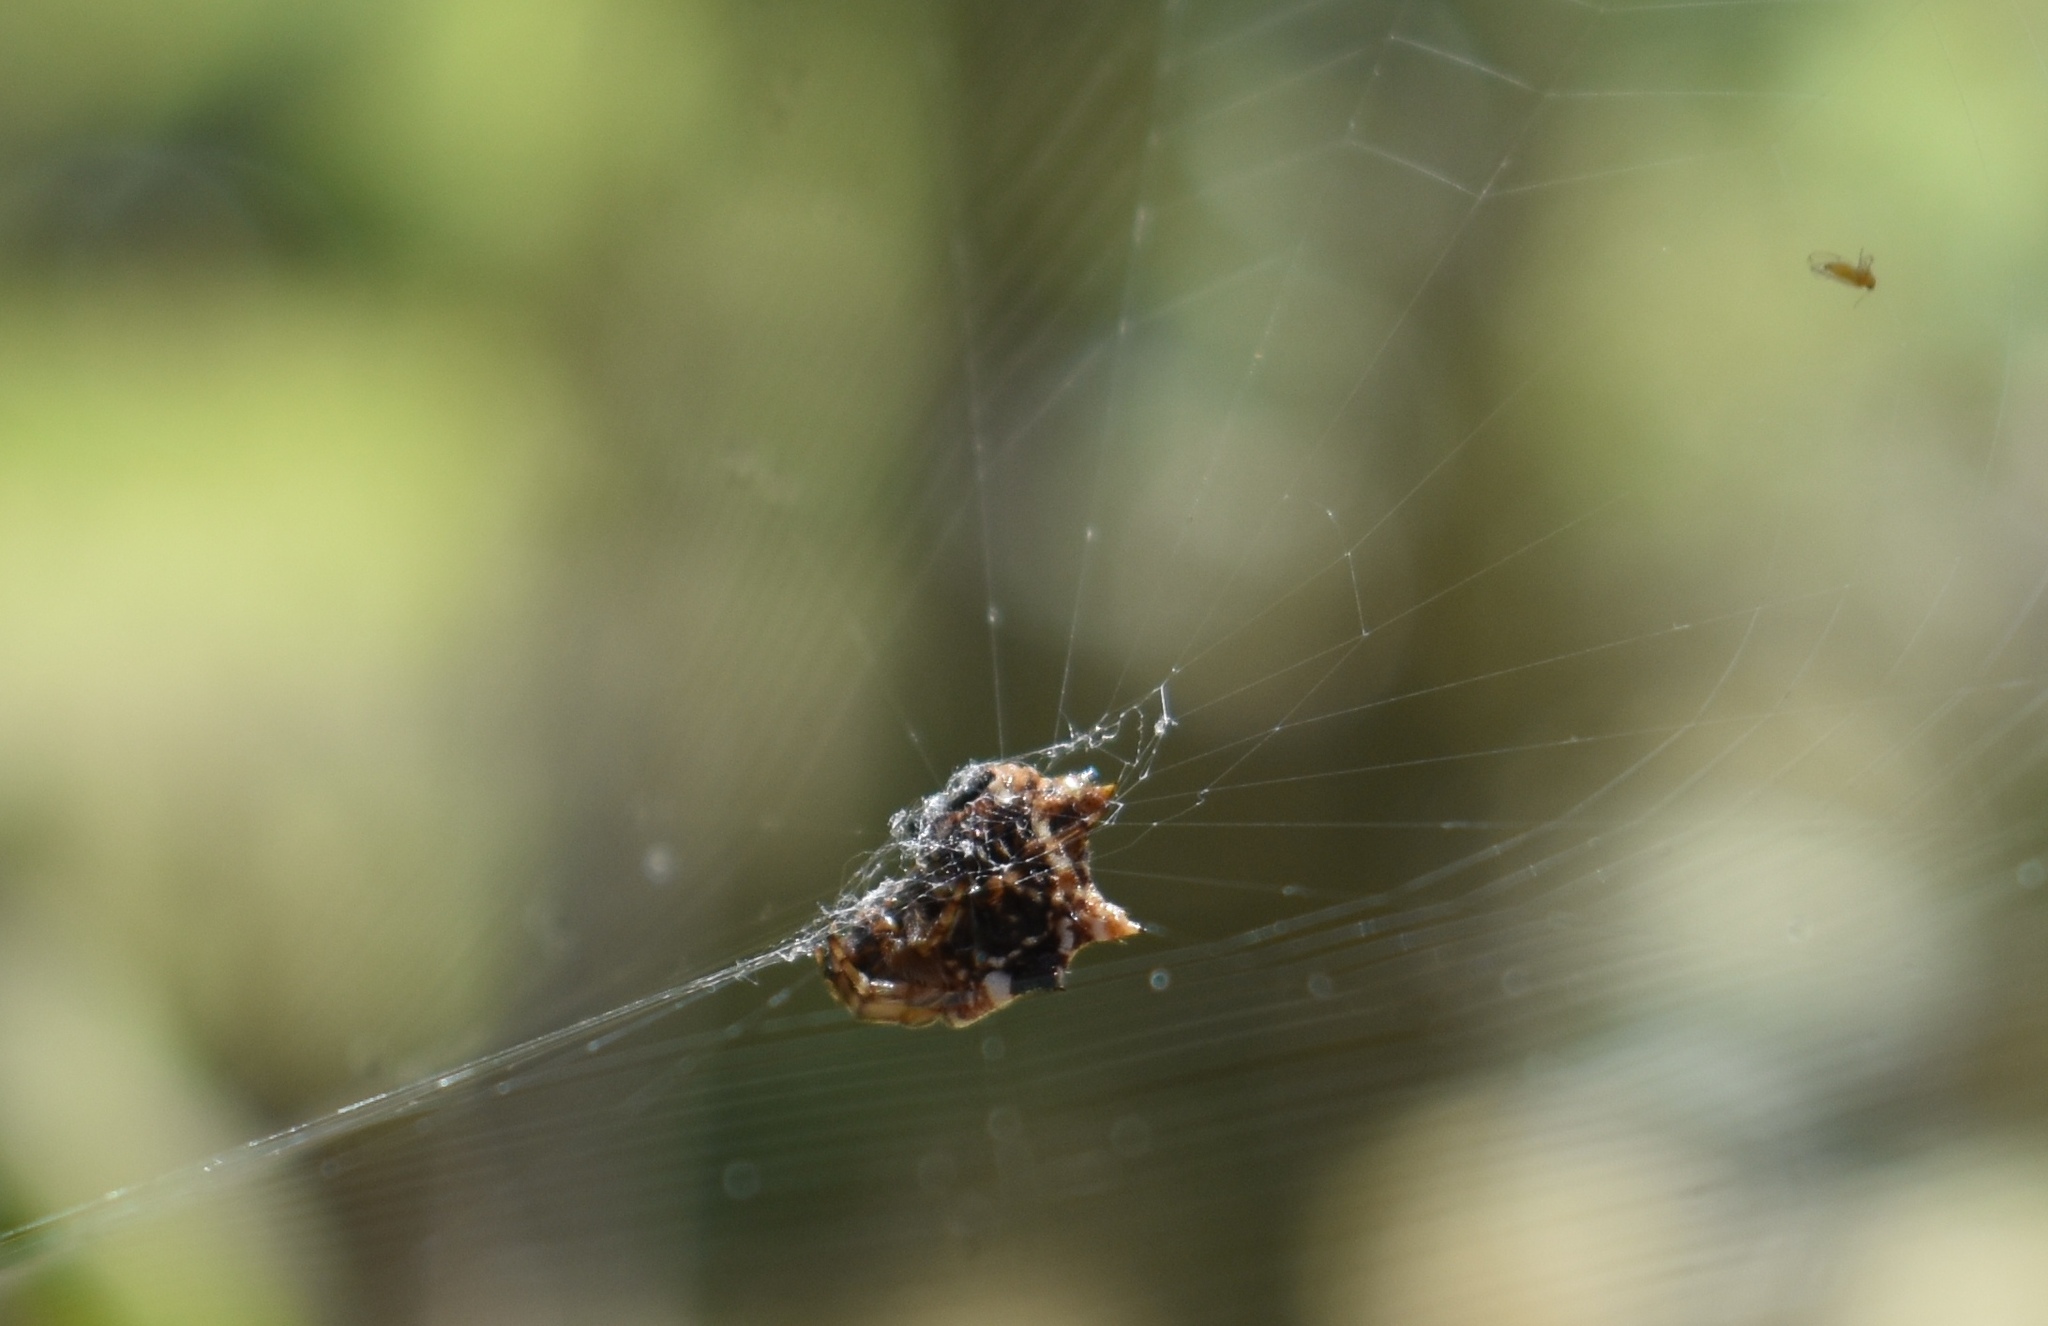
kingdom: Animalia
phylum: Arthropoda
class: Arachnida
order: Araneae
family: Araneidae
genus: Thelacantha
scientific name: Thelacantha brevispina
